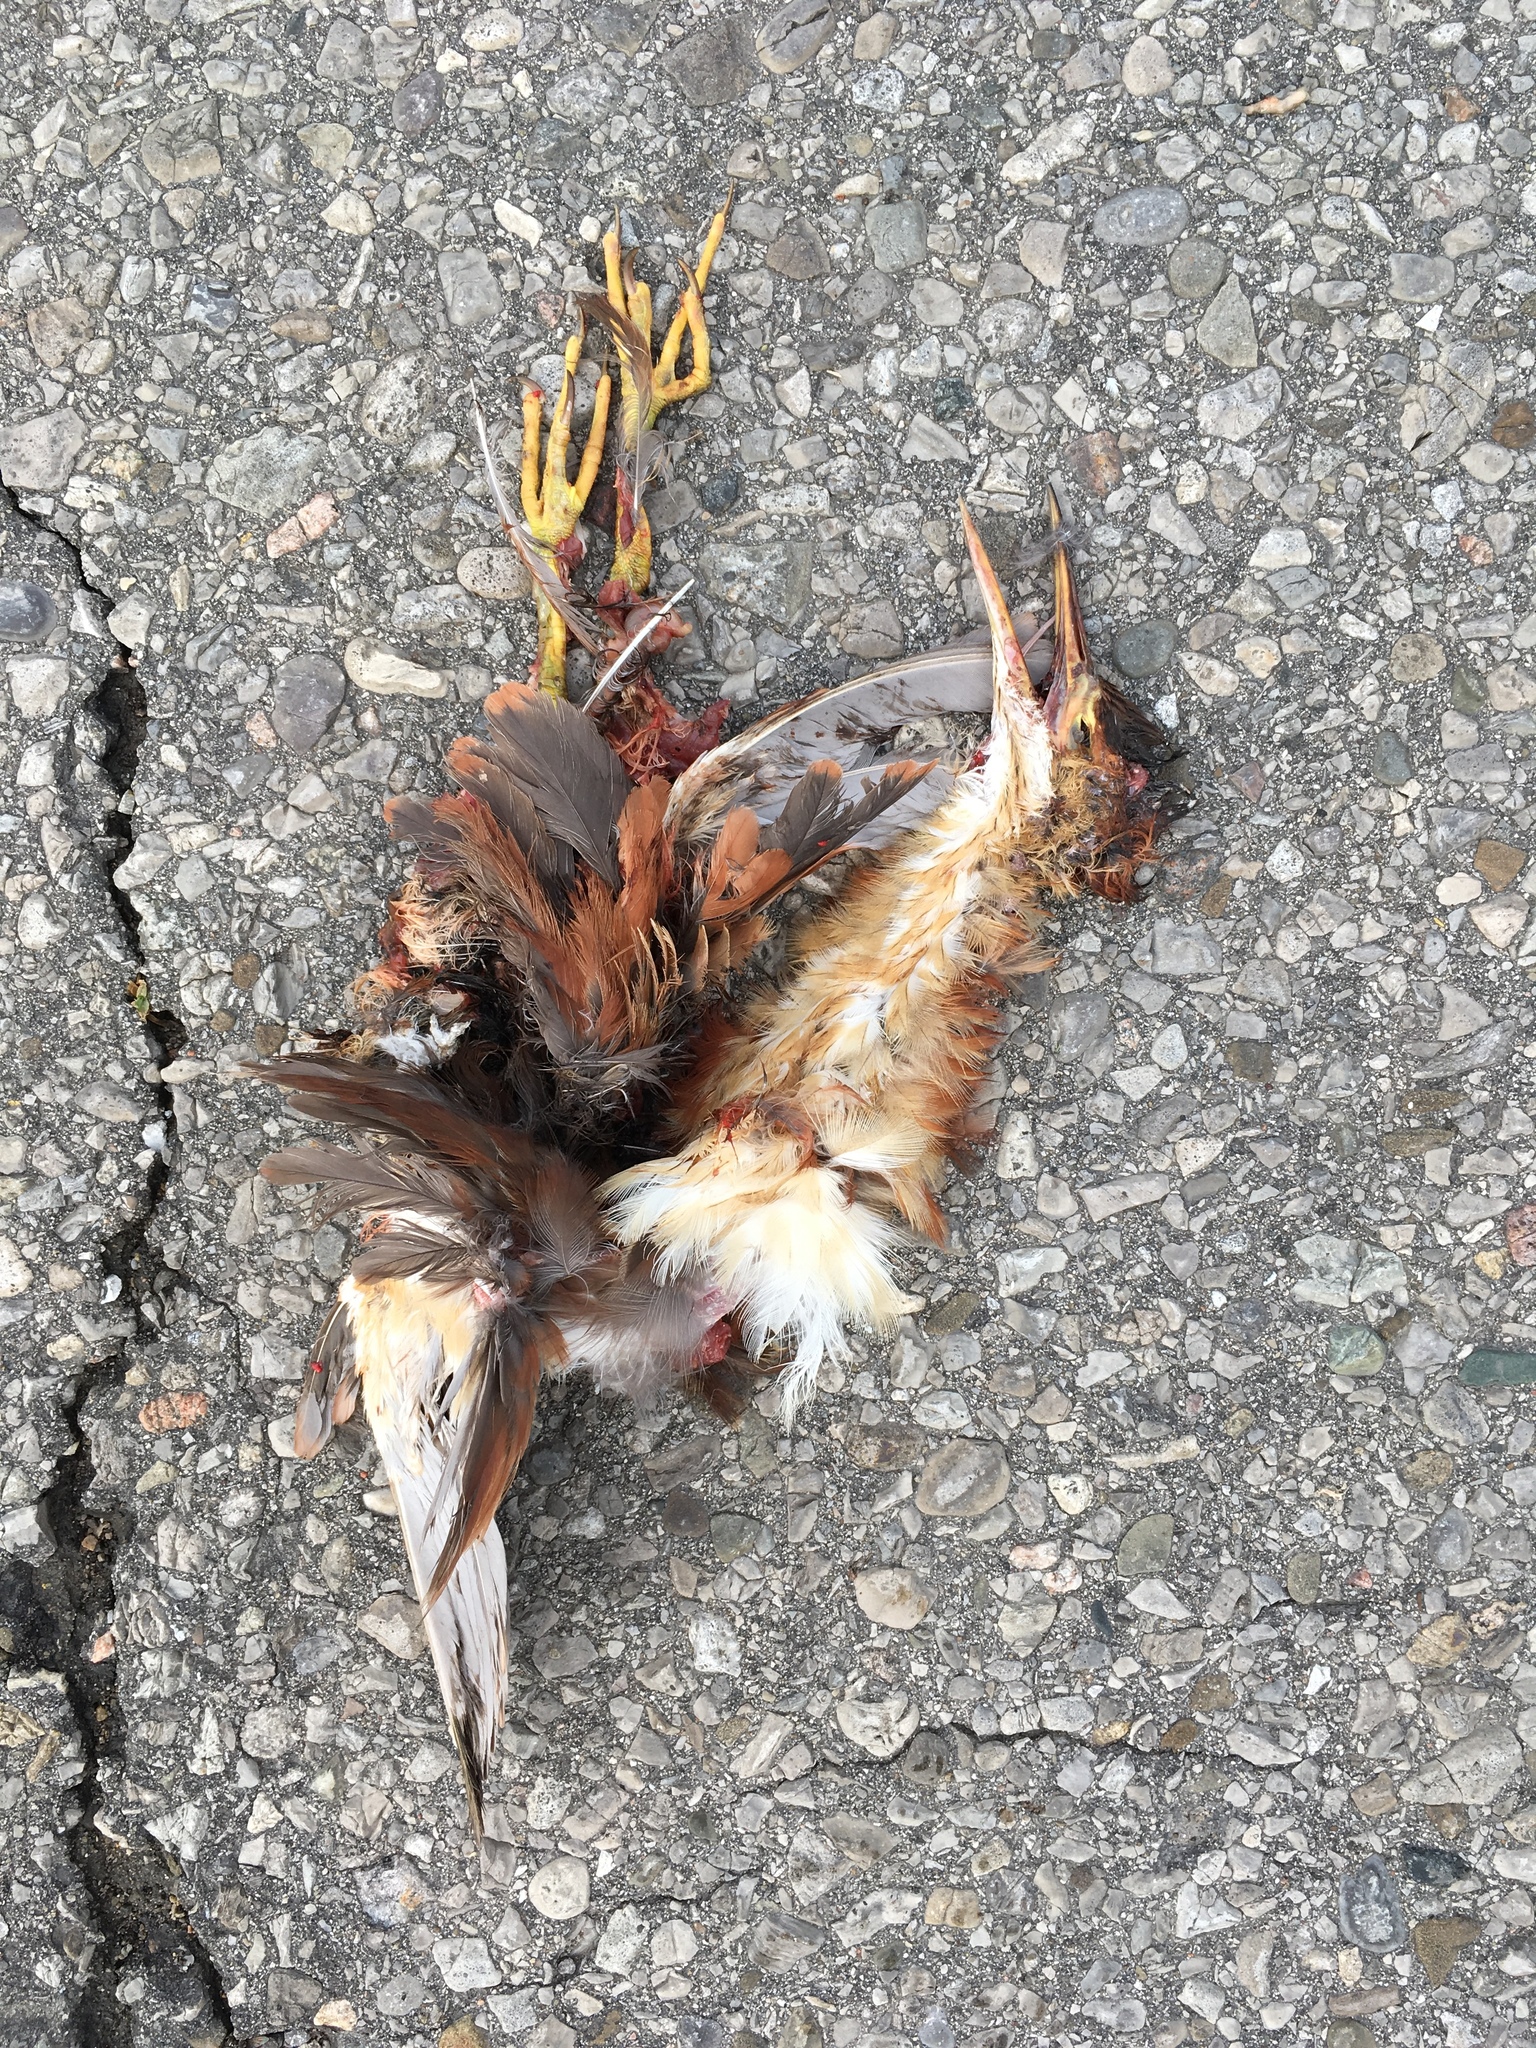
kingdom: Animalia
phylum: Chordata
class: Aves
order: Pelecaniformes
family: Ardeidae
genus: Ixobrychus
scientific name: Ixobrychus exilis
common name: Least bittern
